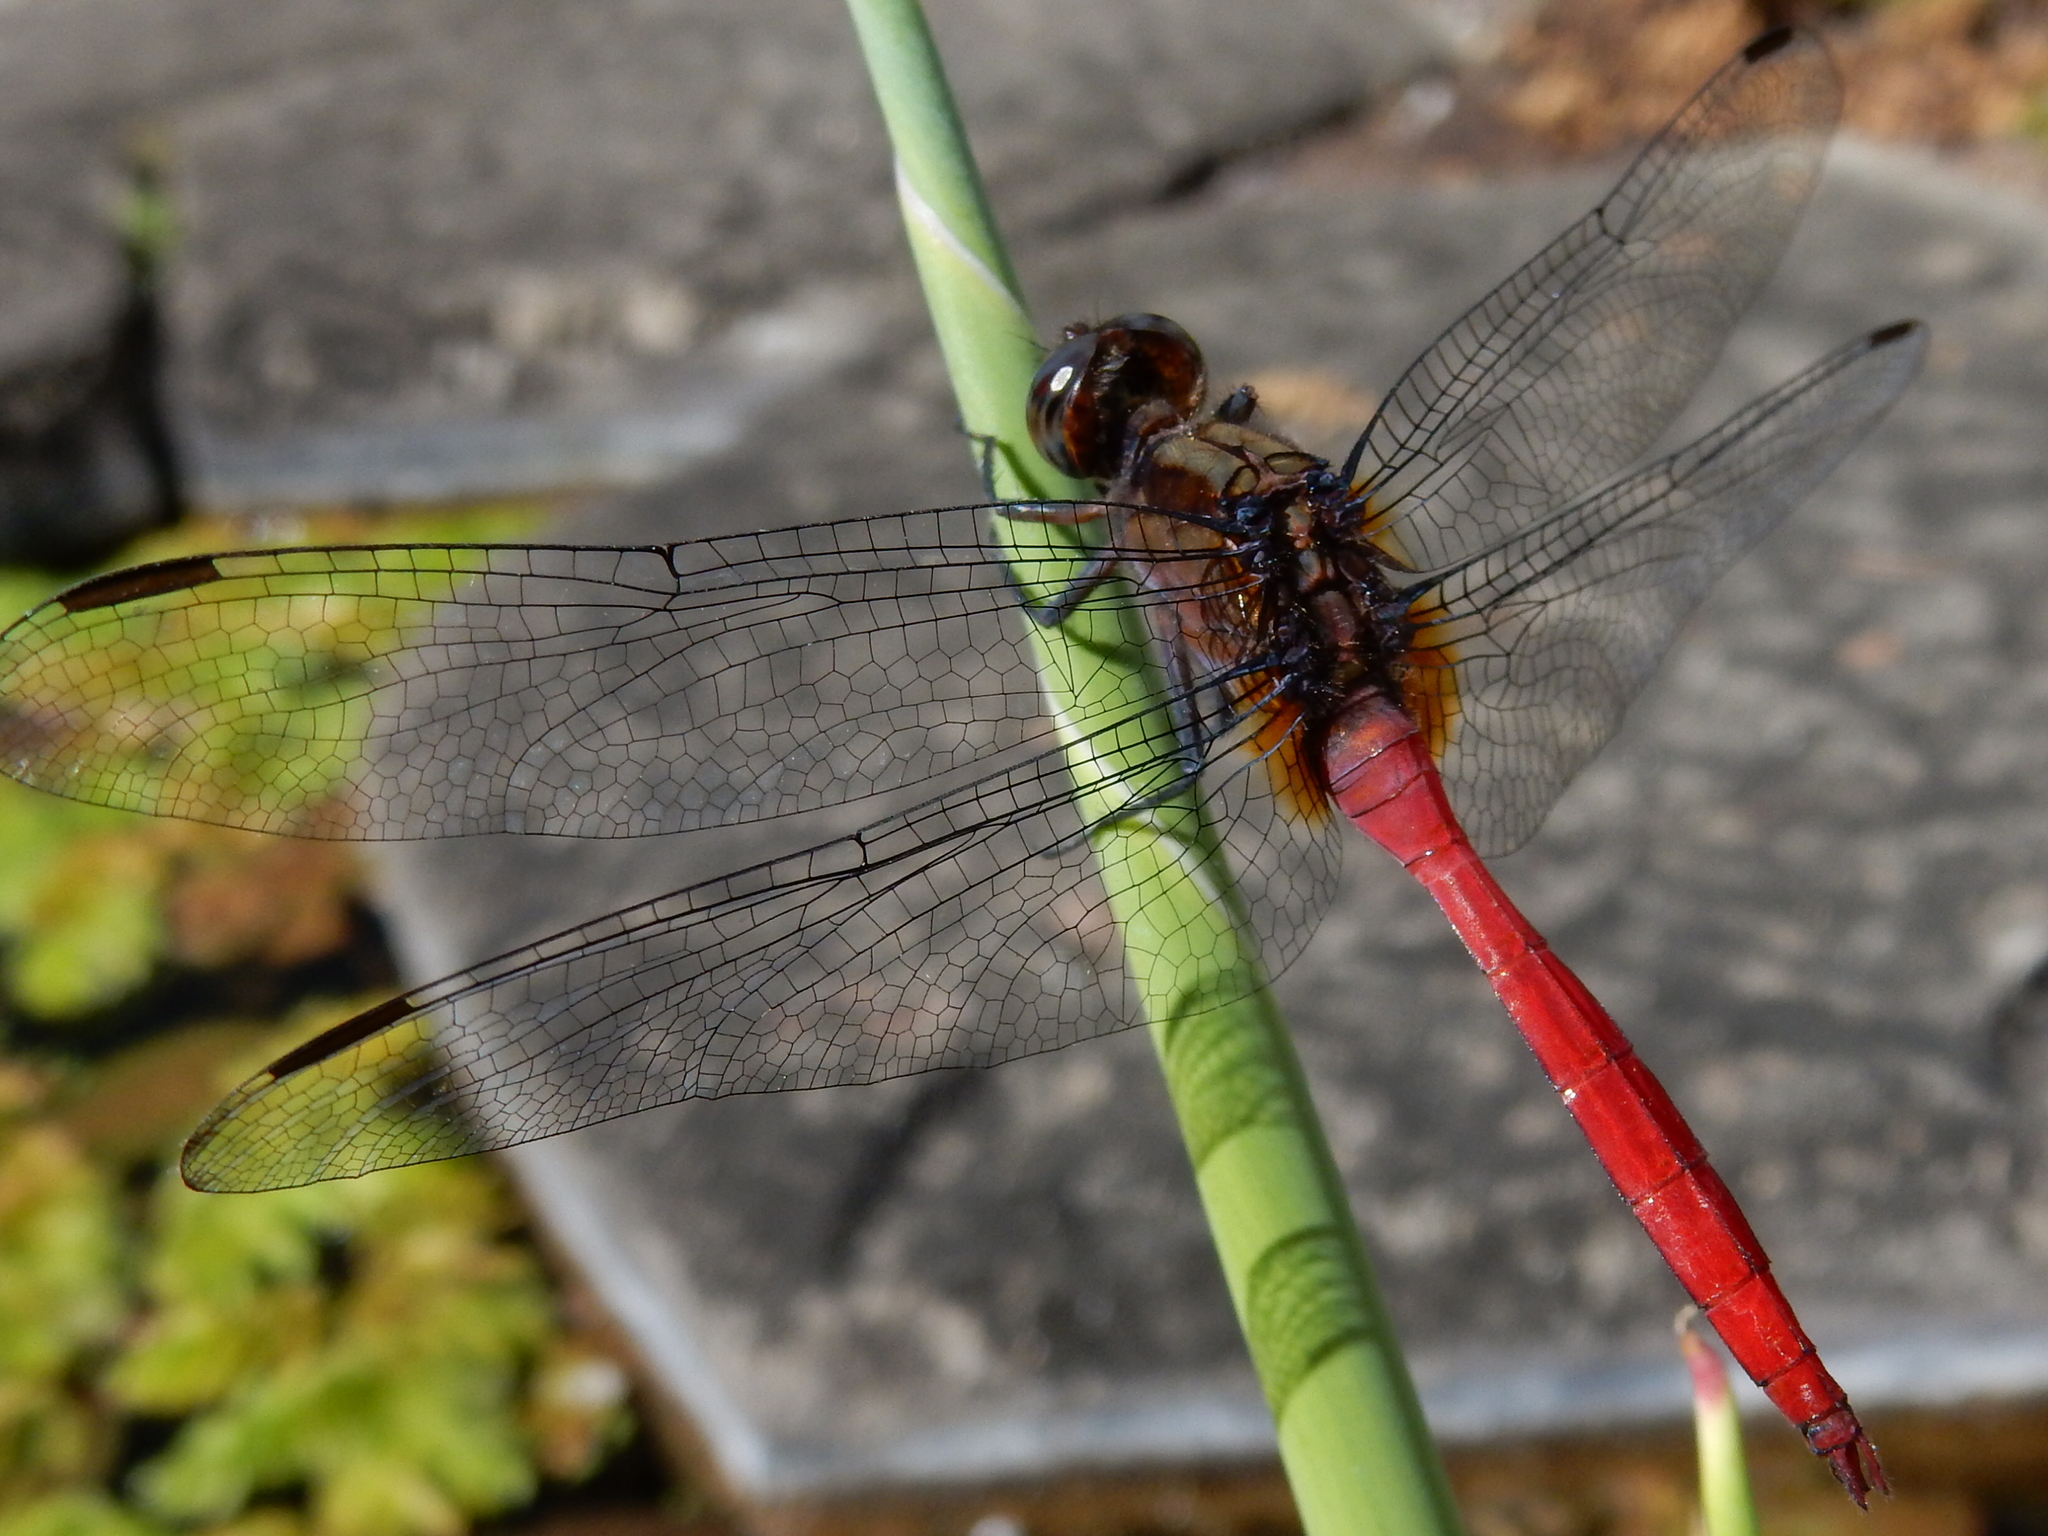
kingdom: Animalia
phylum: Arthropoda
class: Insecta
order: Odonata
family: Libellulidae
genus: Orthetrum
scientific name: Orthetrum villosovittatum
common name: Firery skimmer
